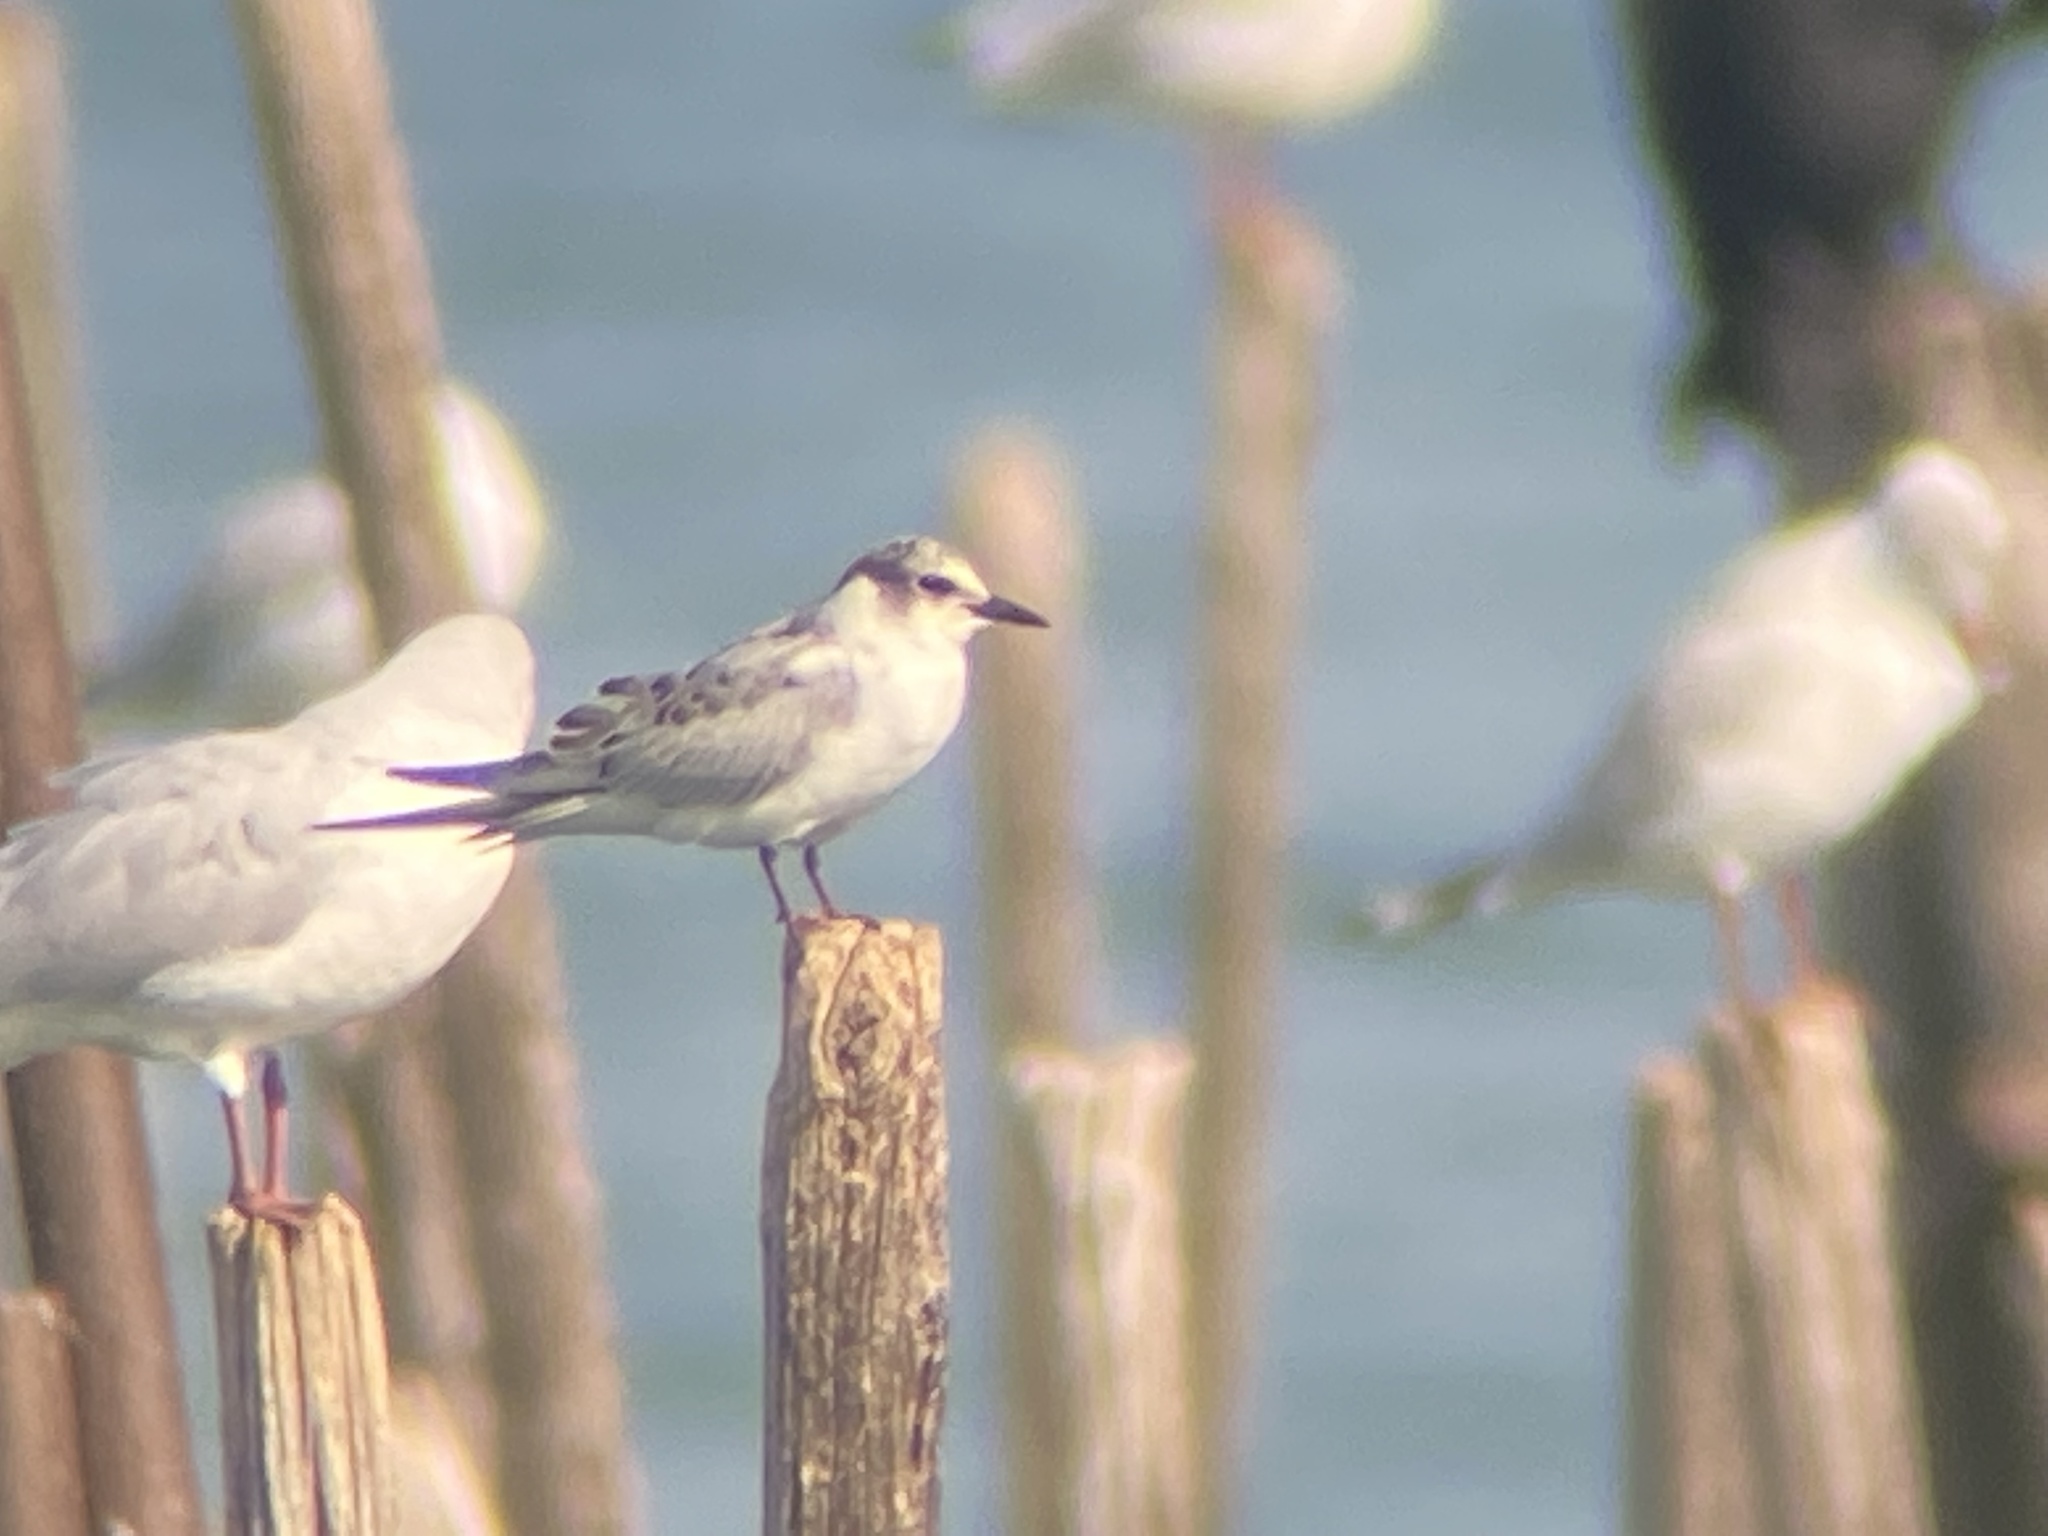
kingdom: Animalia
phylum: Chordata
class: Aves
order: Charadriiformes
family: Laridae
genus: Chlidonias
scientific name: Chlidonias hybrida
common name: Whiskered tern
